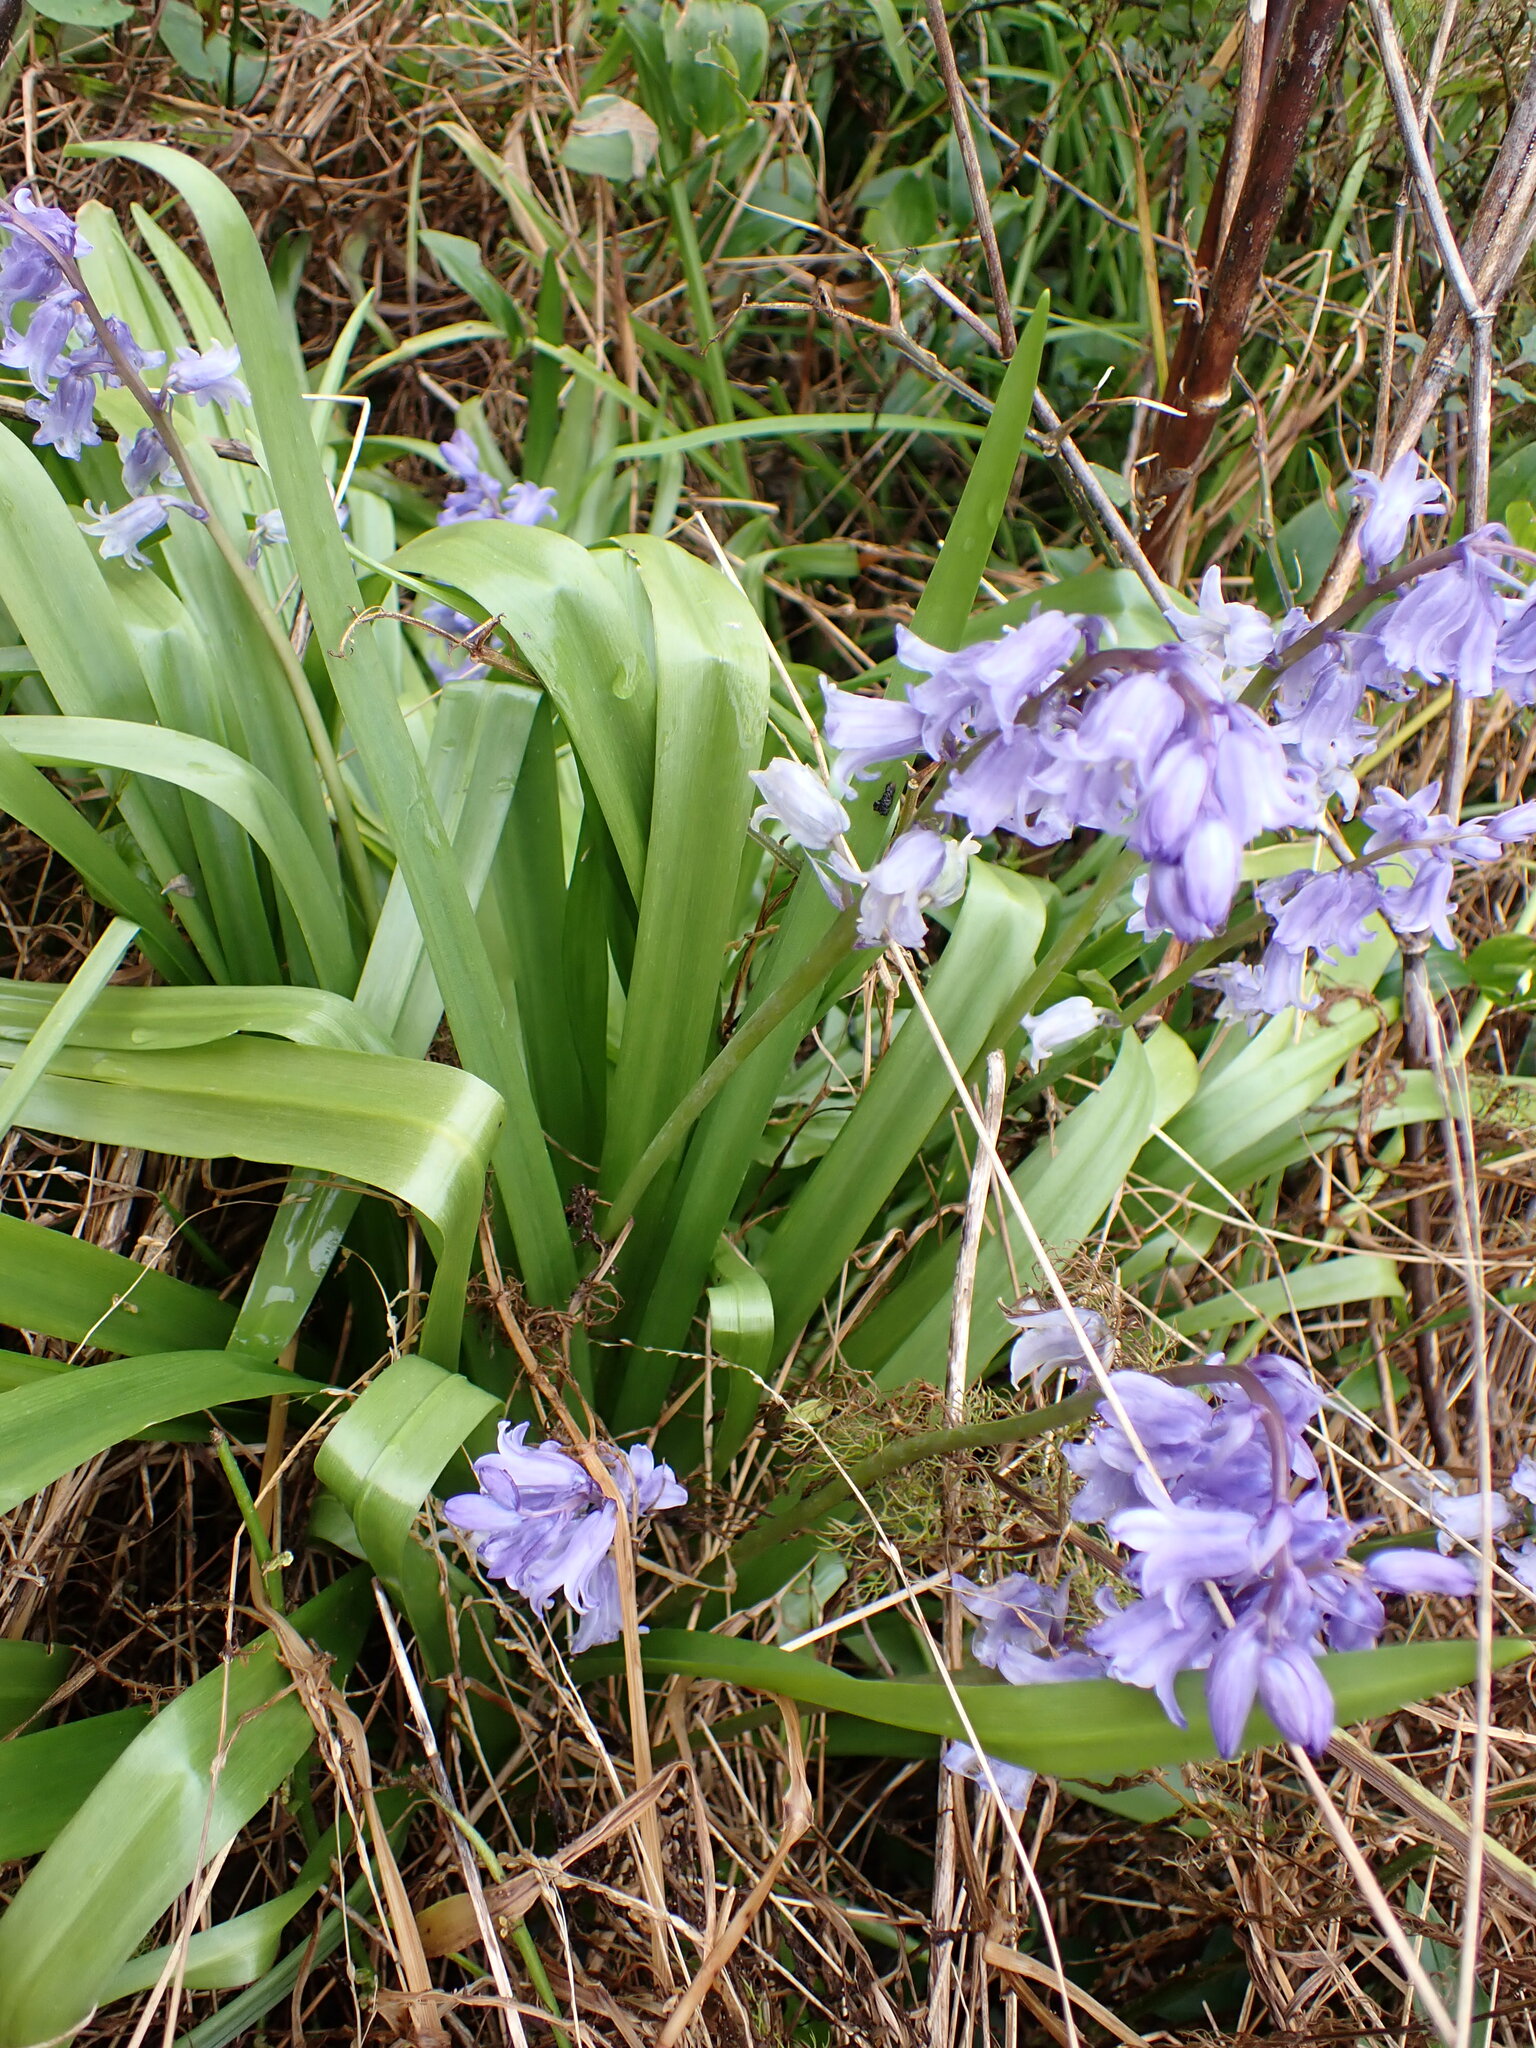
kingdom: Plantae
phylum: Tracheophyta
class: Liliopsida
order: Asparagales
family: Asparagaceae
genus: Hyacinthoides
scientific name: Hyacinthoides massartiana
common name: Hyacinthoides
